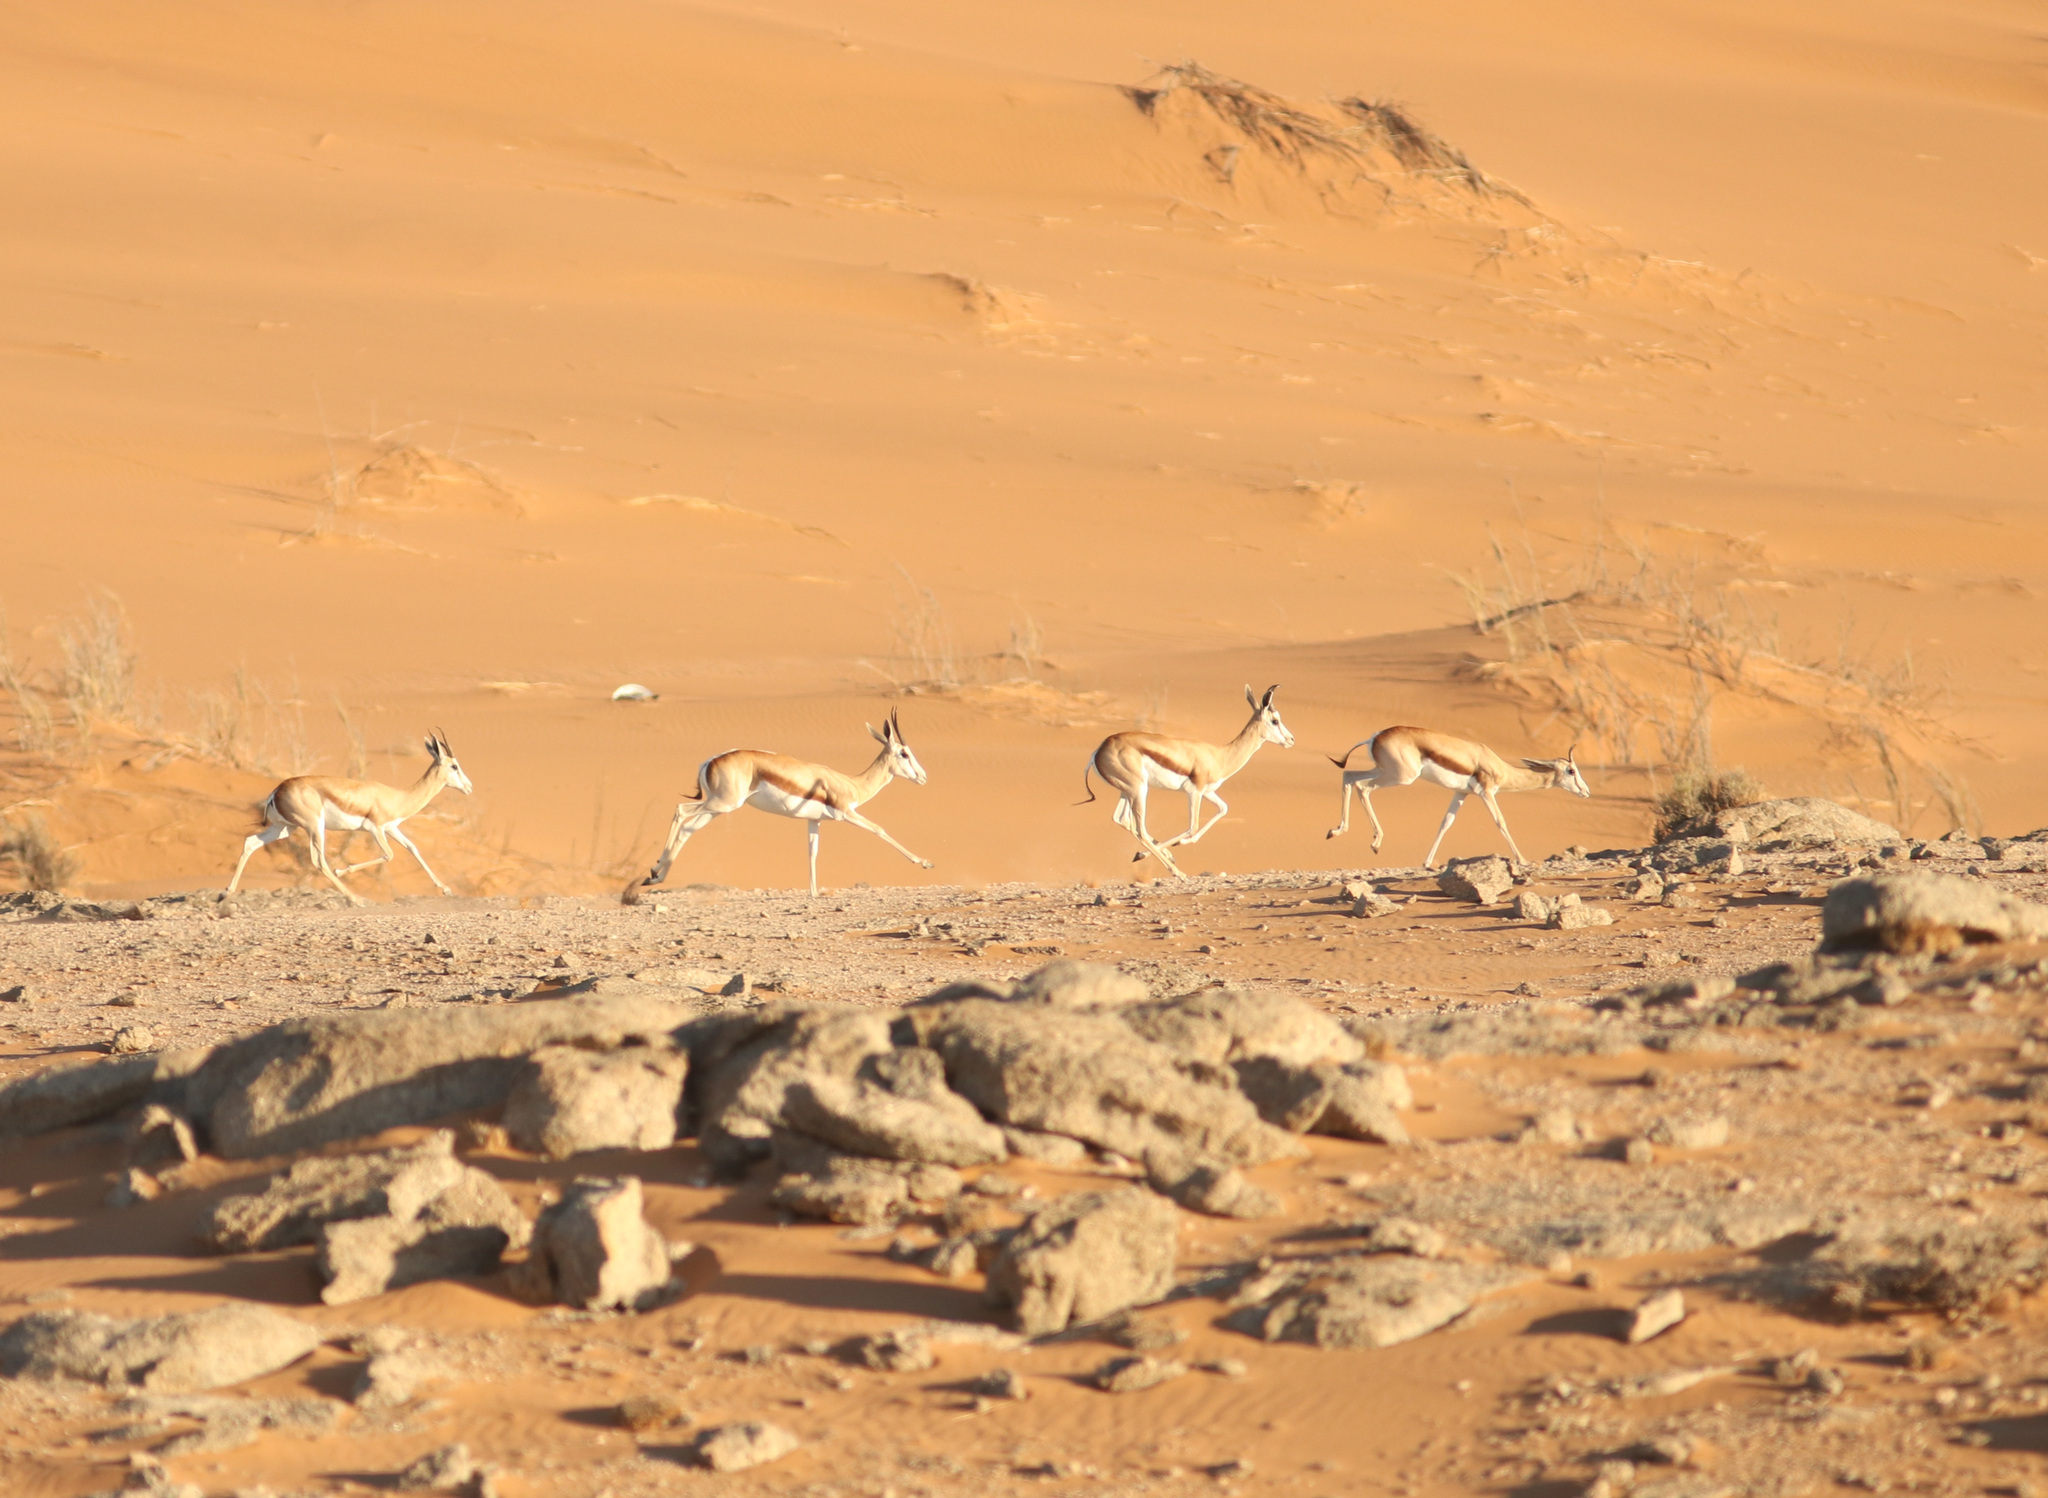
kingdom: Animalia
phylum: Chordata
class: Mammalia
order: Artiodactyla
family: Bovidae
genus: Antidorcas
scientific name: Antidorcas marsupialis
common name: Springbok
